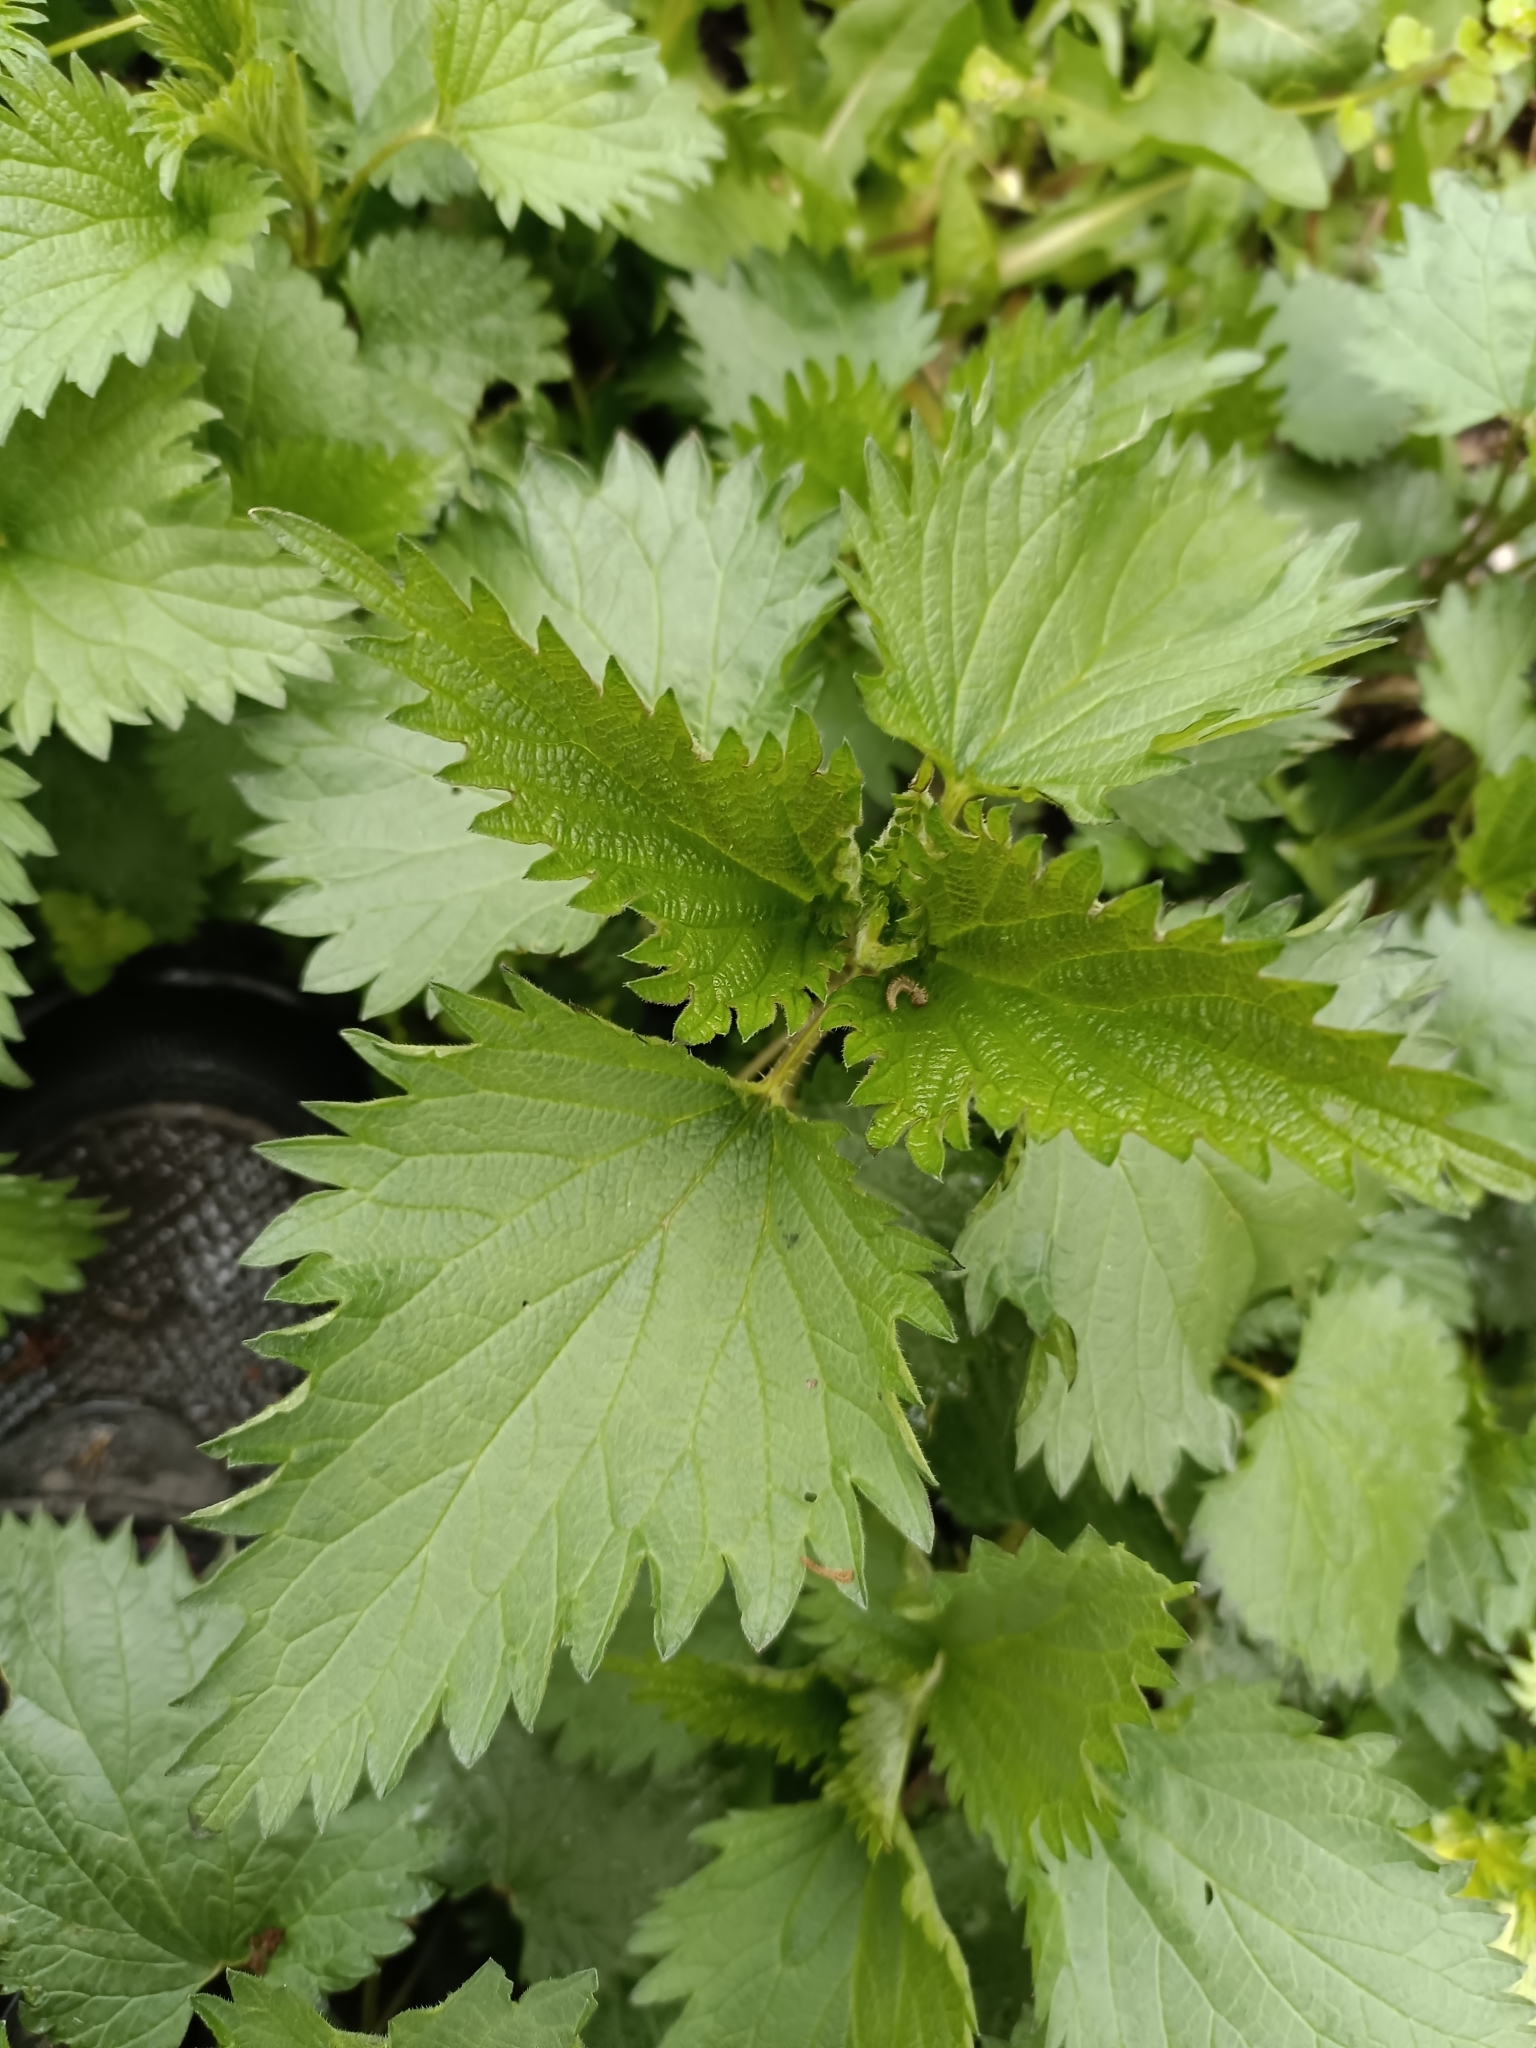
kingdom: Plantae
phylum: Tracheophyta
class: Magnoliopsida
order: Rosales
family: Urticaceae
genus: Urtica
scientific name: Urtica dioica
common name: Common nettle
